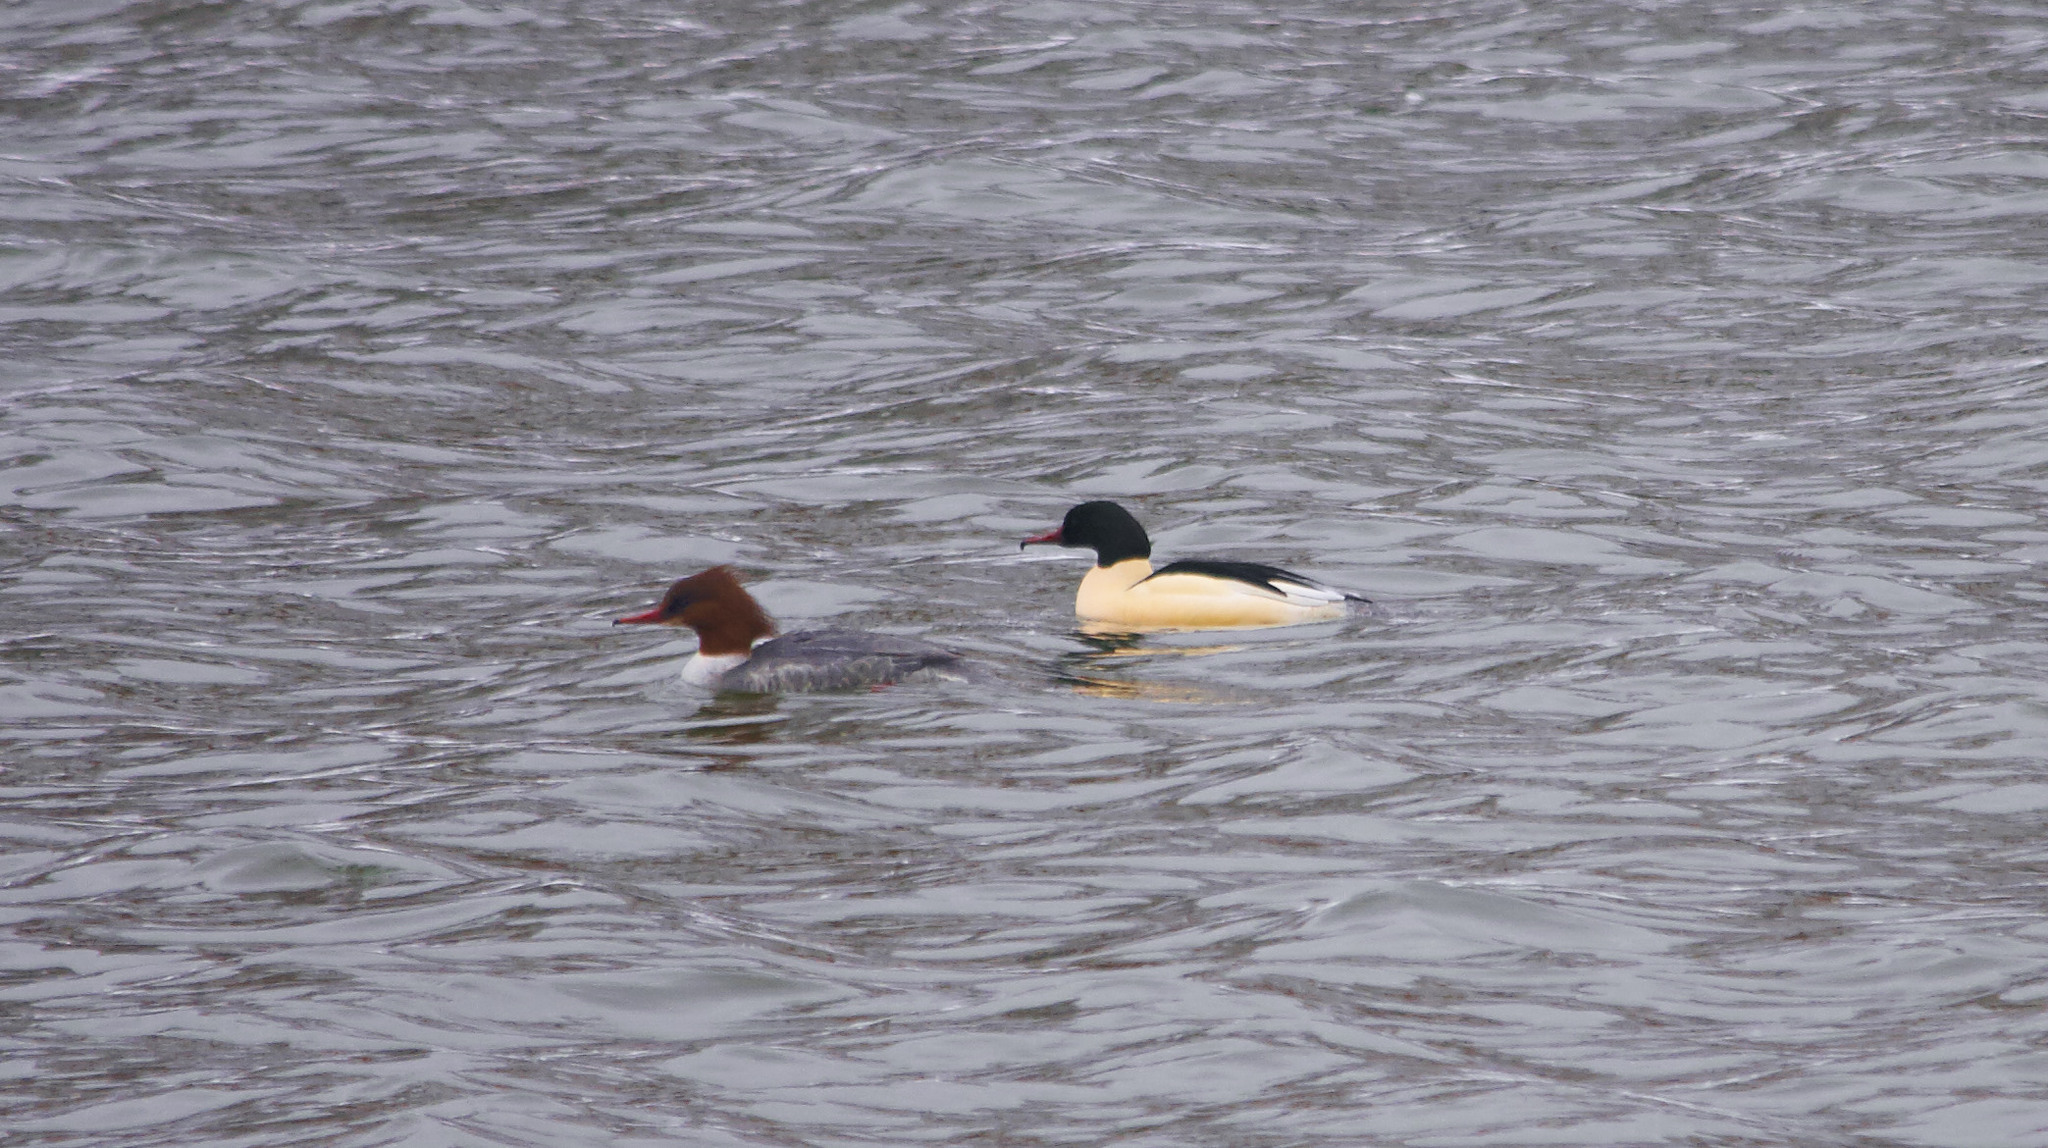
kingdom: Animalia
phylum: Chordata
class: Aves
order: Anseriformes
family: Anatidae
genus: Mergus
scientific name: Mergus merganser
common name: Common merganser
